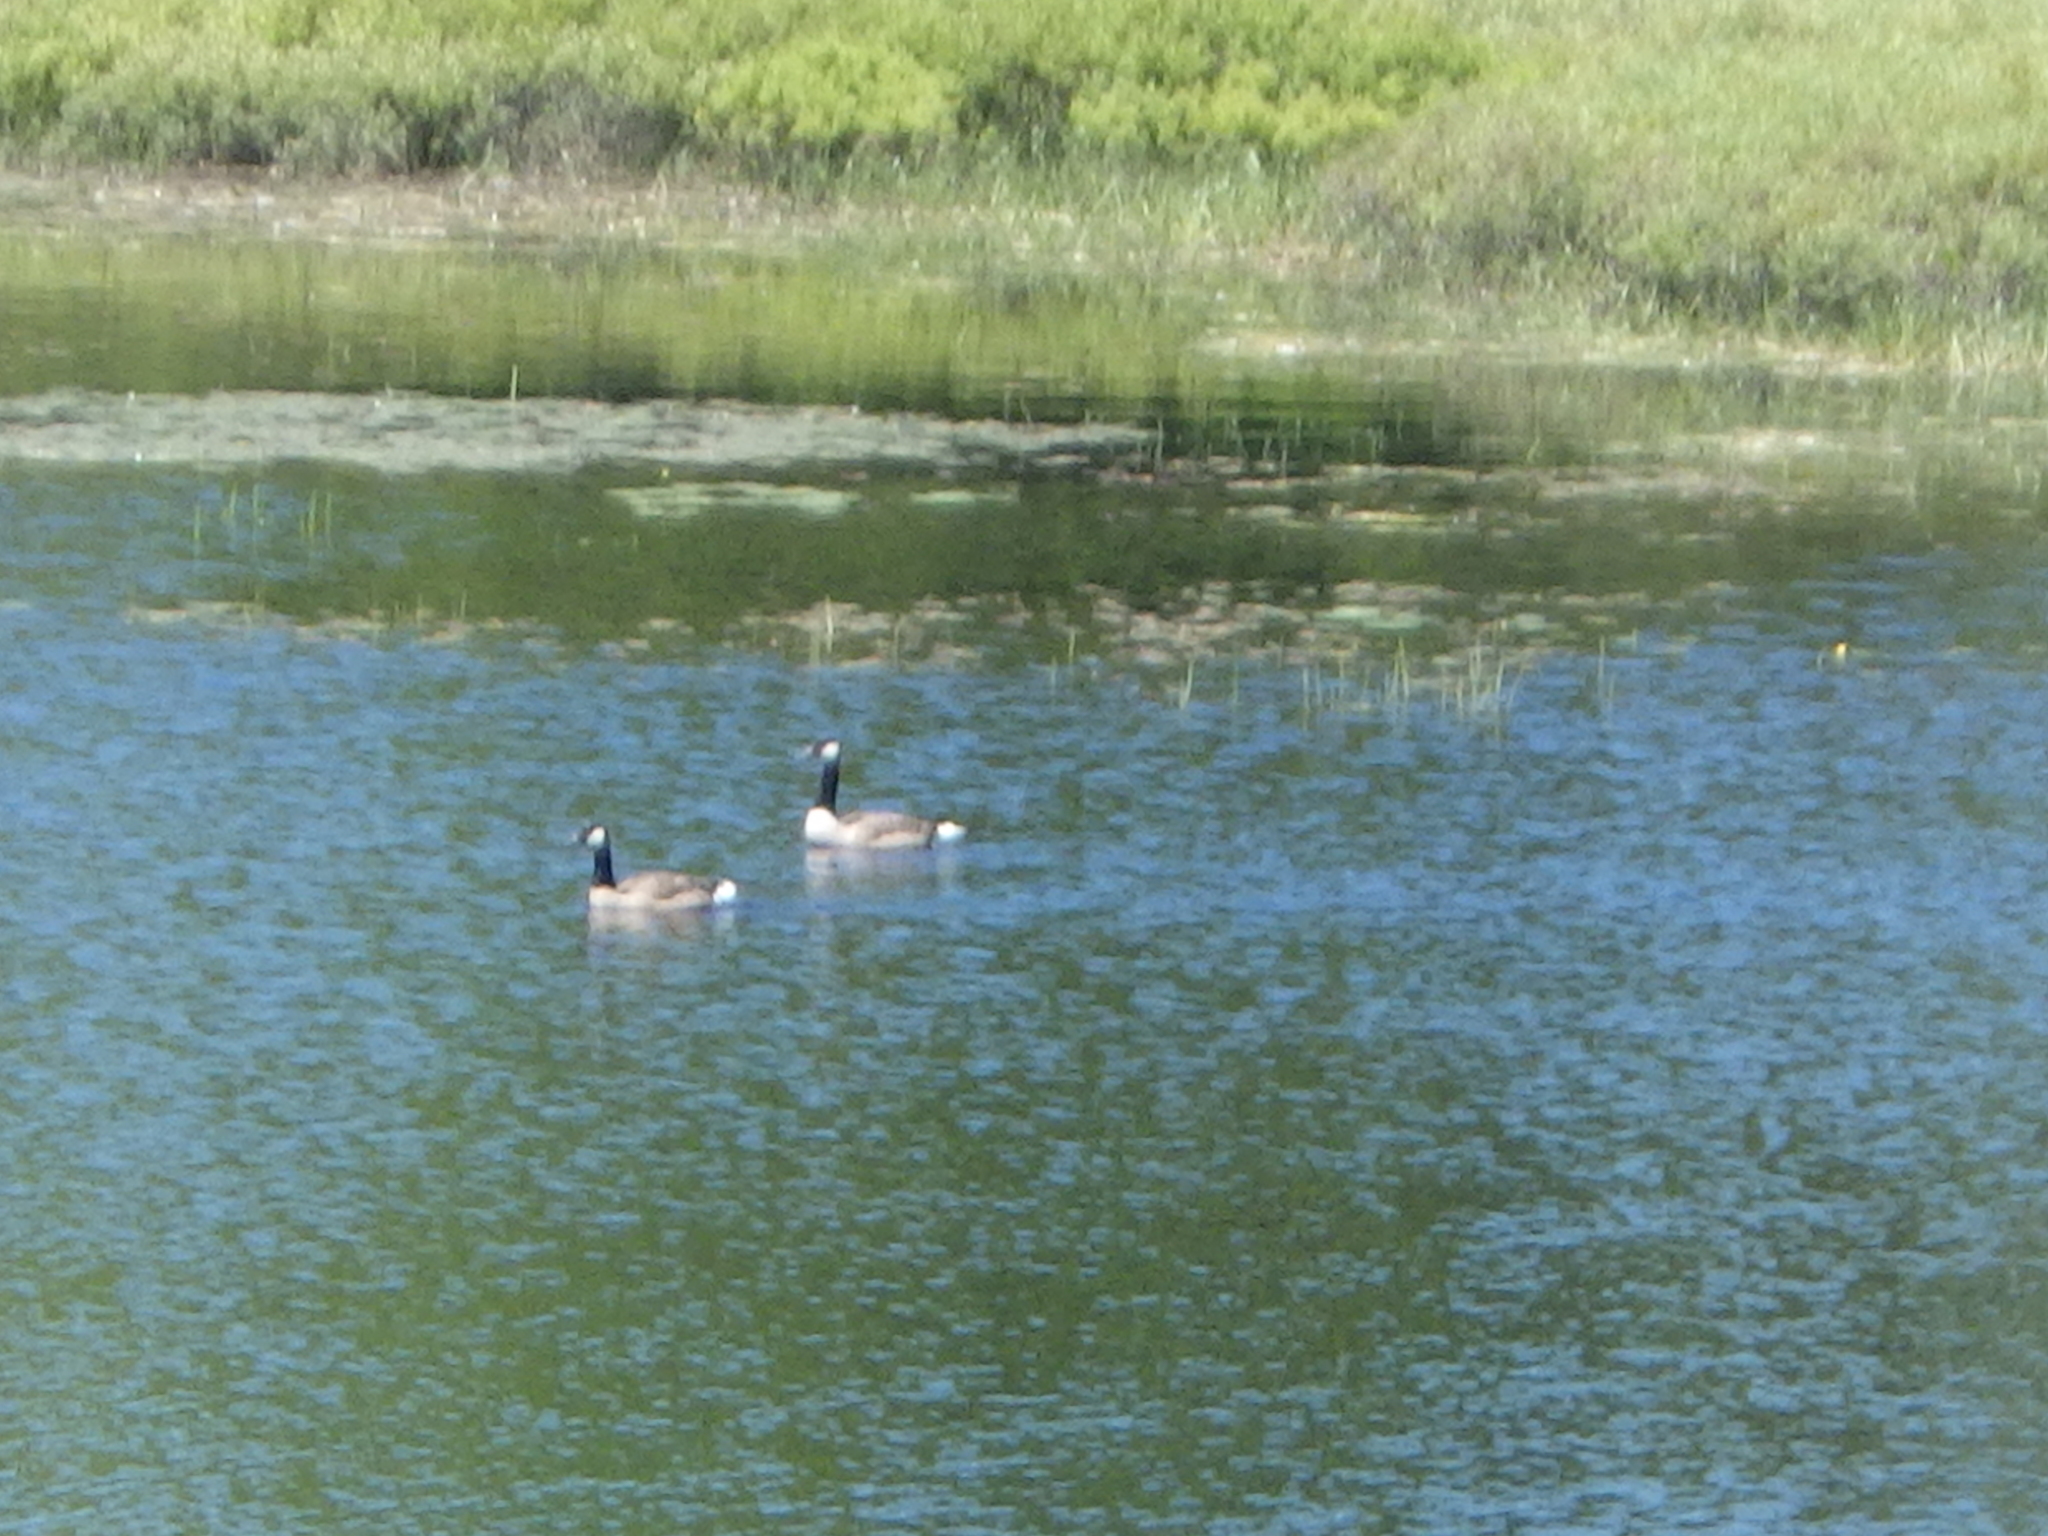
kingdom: Animalia
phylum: Chordata
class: Aves
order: Anseriformes
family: Anatidae
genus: Branta
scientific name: Branta canadensis
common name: Canada goose
